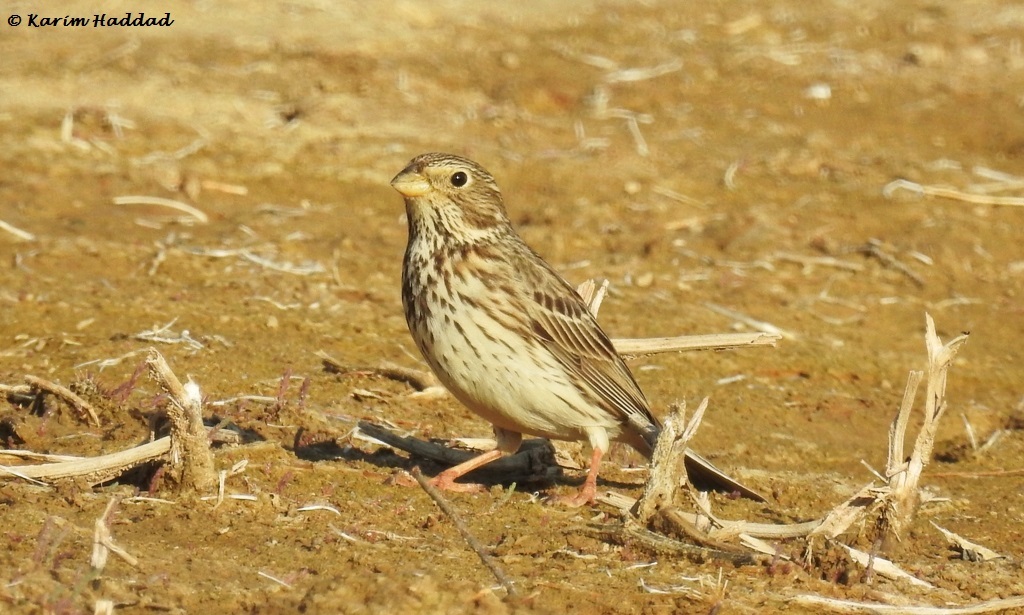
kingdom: Animalia
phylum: Chordata
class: Aves
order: Passeriformes
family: Emberizidae
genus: Emberiza
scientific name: Emberiza calandra
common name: Corn bunting
